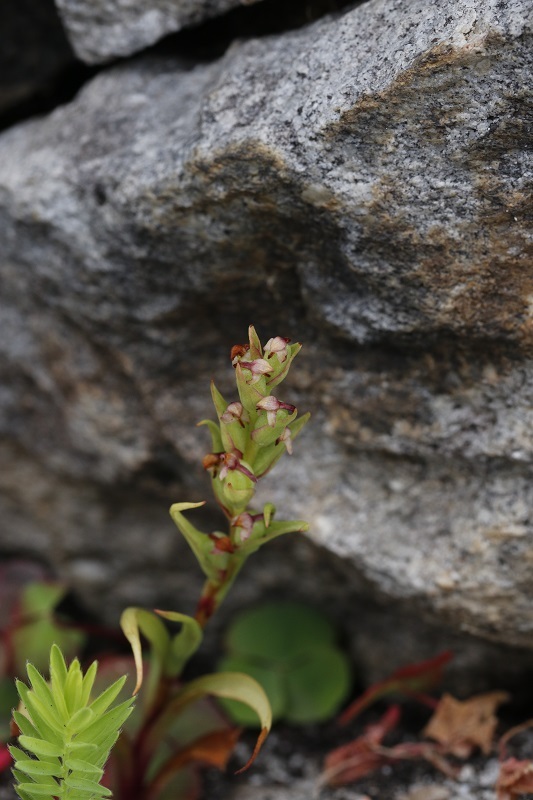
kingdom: Plantae
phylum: Tracheophyta
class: Liliopsida
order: Asparagales
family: Orchidaceae
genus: Disa
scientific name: Disa bracteata
